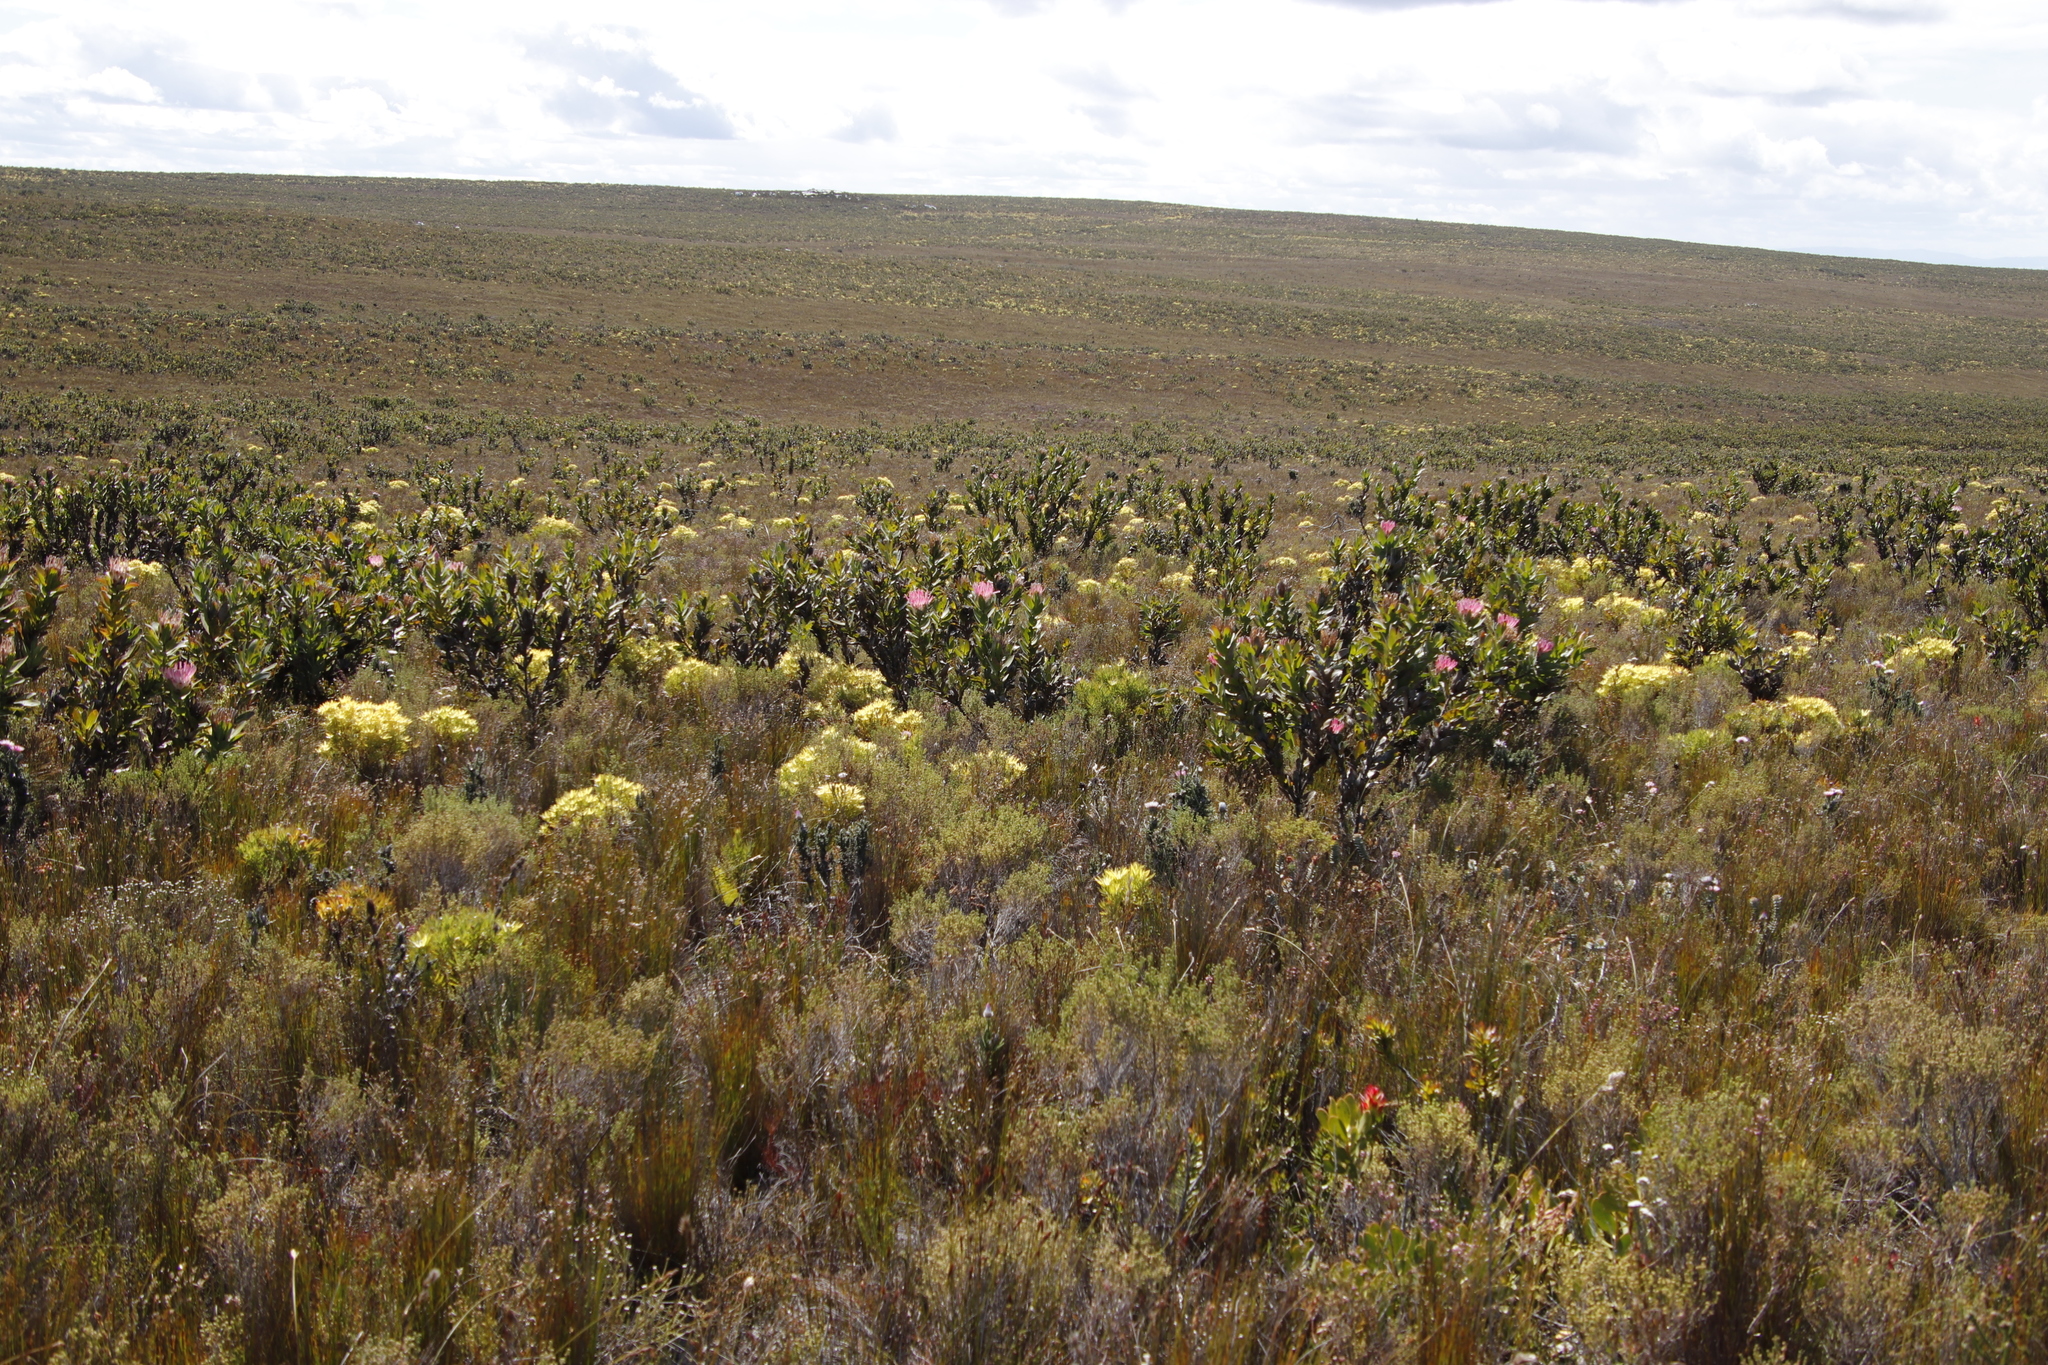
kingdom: Plantae
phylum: Tracheophyta
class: Magnoliopsida
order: Proteales
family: Proteaceae
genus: Leucadendron
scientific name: Leucadendron xanthoconus
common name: Sickle-leaf conebush
